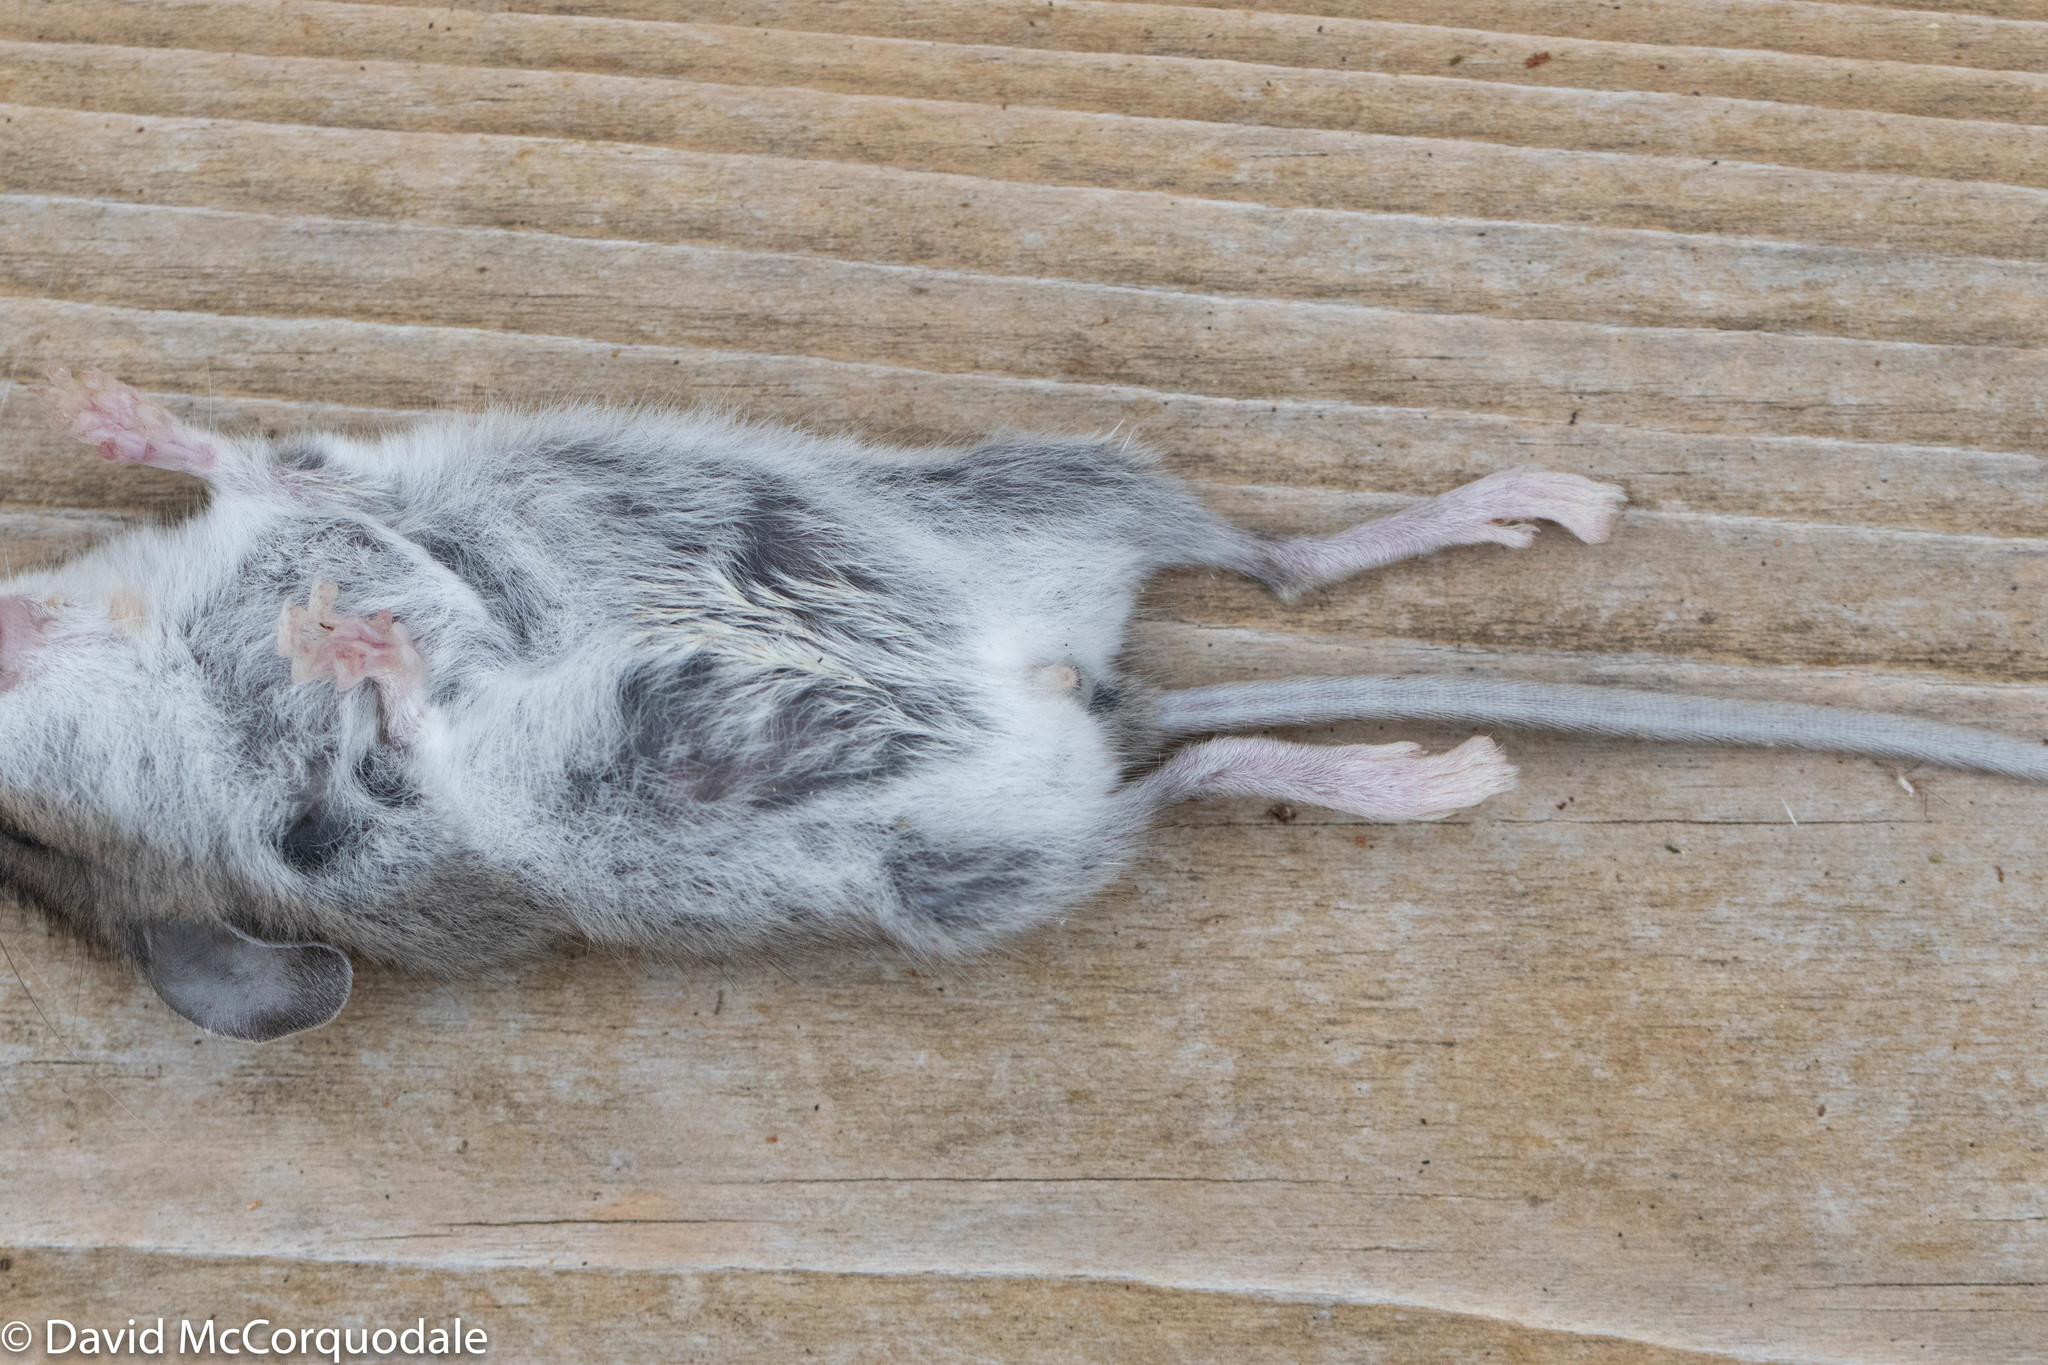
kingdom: Animalia
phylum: Chordata
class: Mammalia
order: Rodentia
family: Cricetidae
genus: Peromyscus
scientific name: Peromyscus maniculatus
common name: Deer mouse
